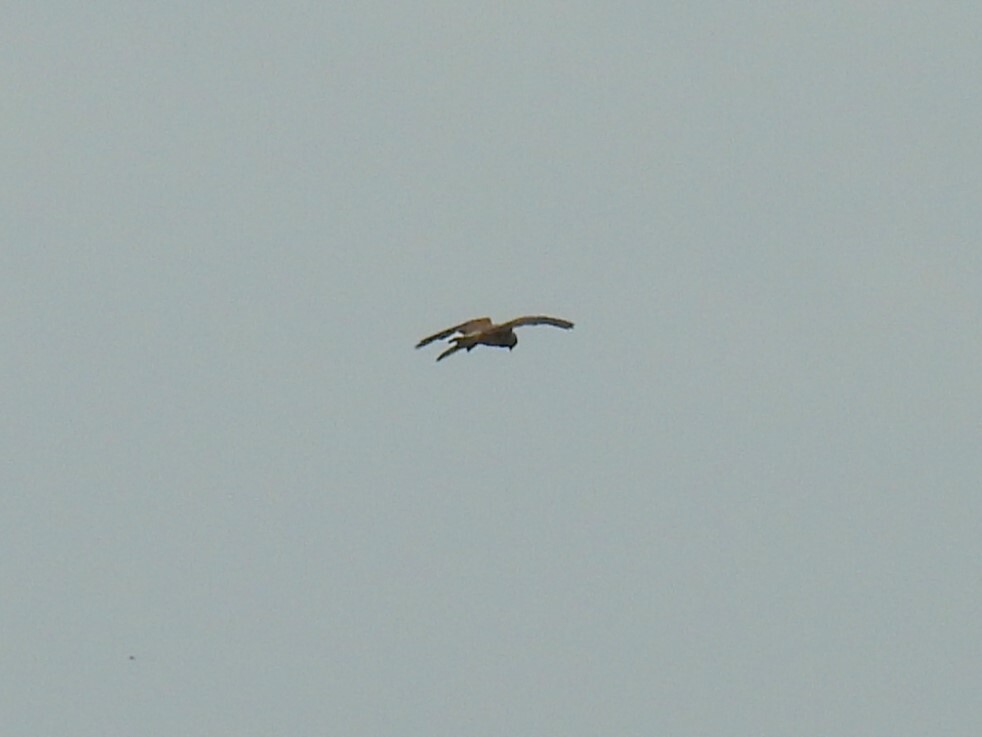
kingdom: Animalia
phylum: Chordata
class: Aves
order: Falconiformes
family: Falconidae
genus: Falco
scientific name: Falco tinnunculus
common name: Common kestrel
